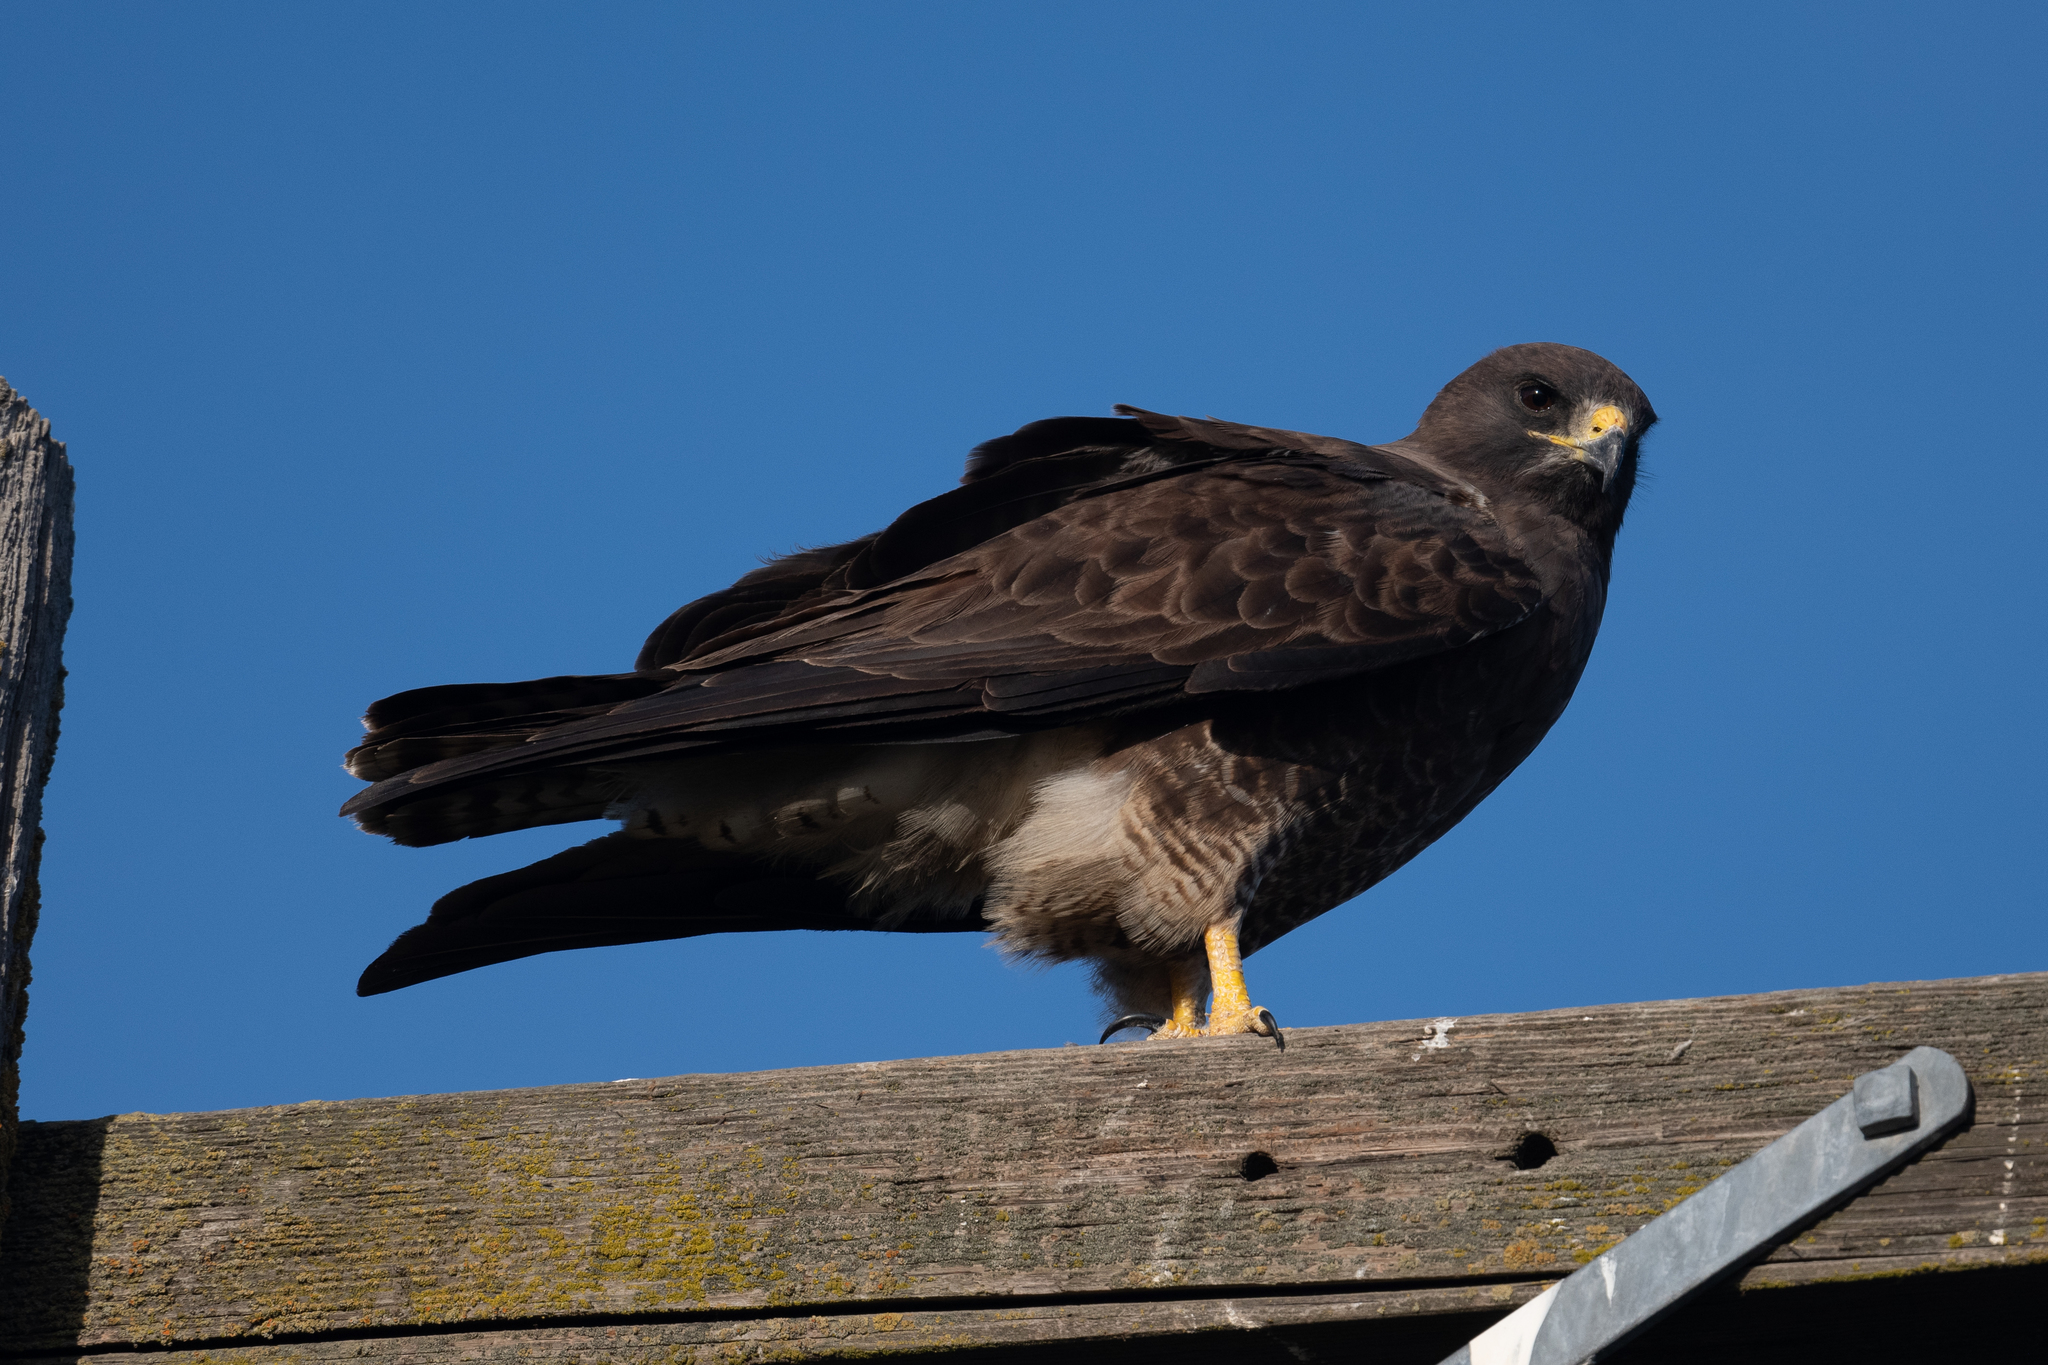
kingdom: Animalia
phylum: Chordata
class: Aves
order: Accipitriformes
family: Accipitridae
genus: Buteo
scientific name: Buteo swainsoni
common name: Swainson's hawk
